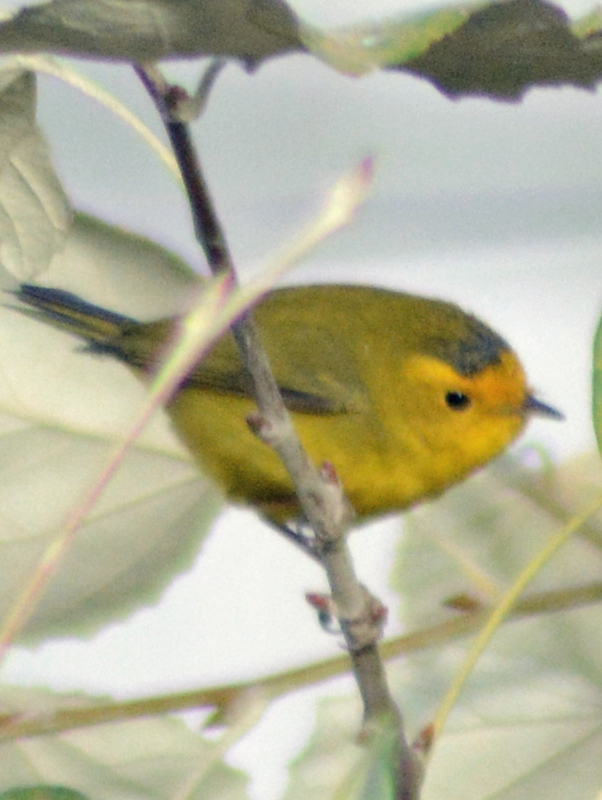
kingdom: Animalia
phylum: Chordata
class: Aves
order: Passeriformes
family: Parulidae
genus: Cardellina
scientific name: Cardellina pusilla
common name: Wilson's warbler
